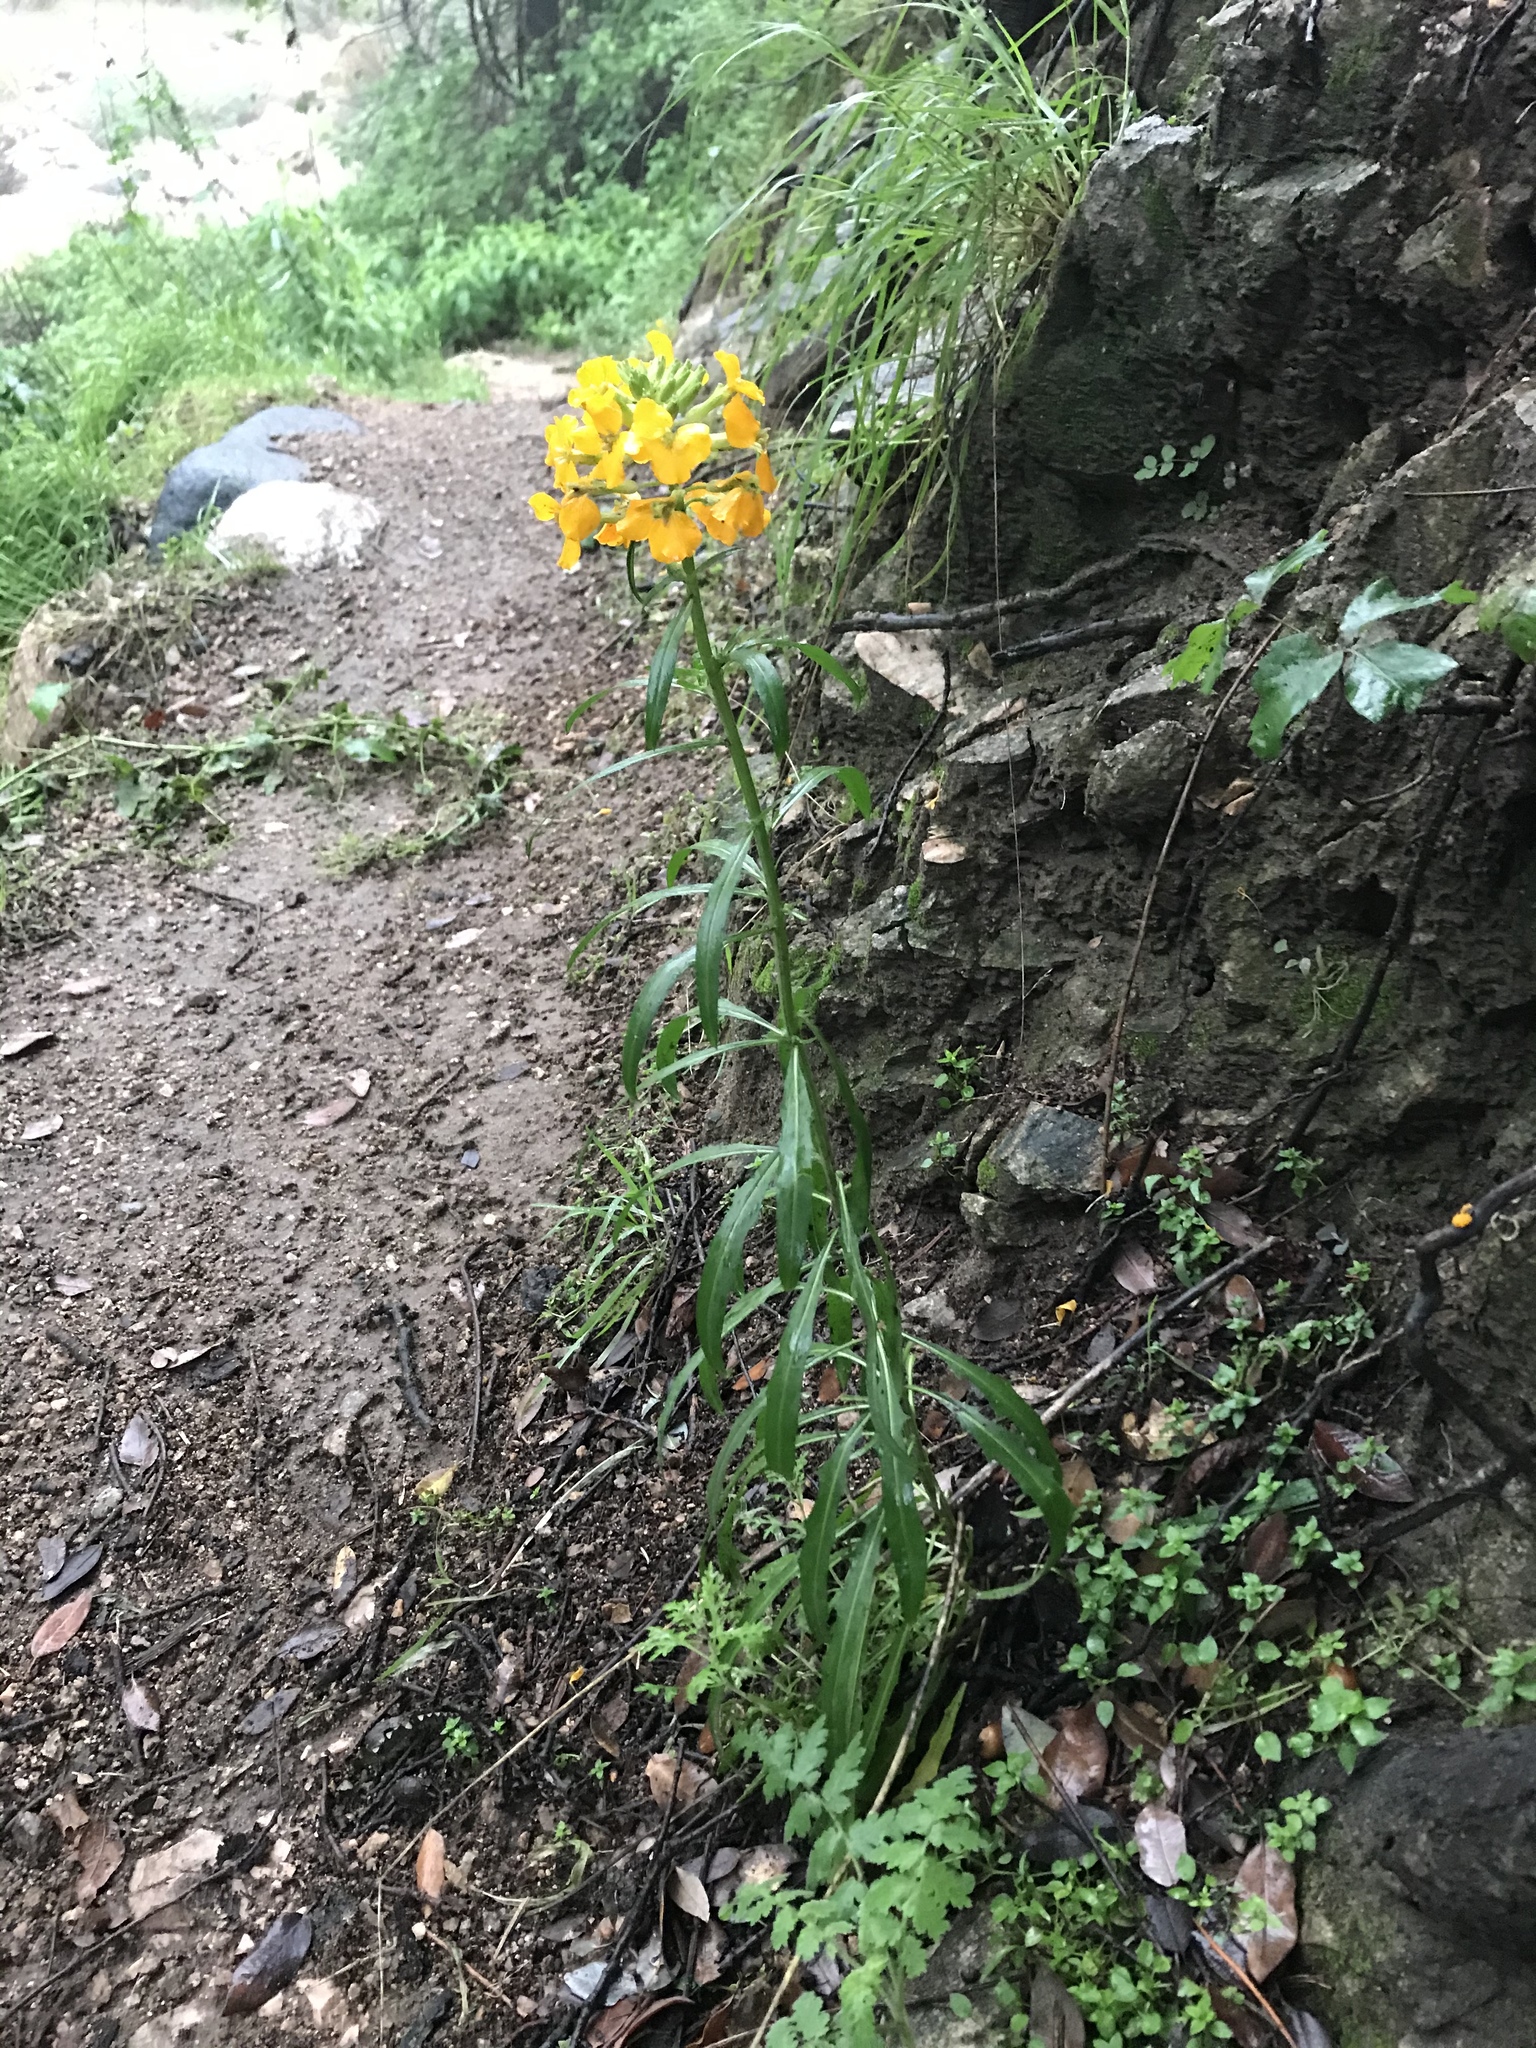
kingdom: Plantae
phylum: Tracheophyta
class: Magnoliopsida
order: Brassicales
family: Brassicaceae
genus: Erysimum
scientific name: Erysimum capitatum
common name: Western wallflower
